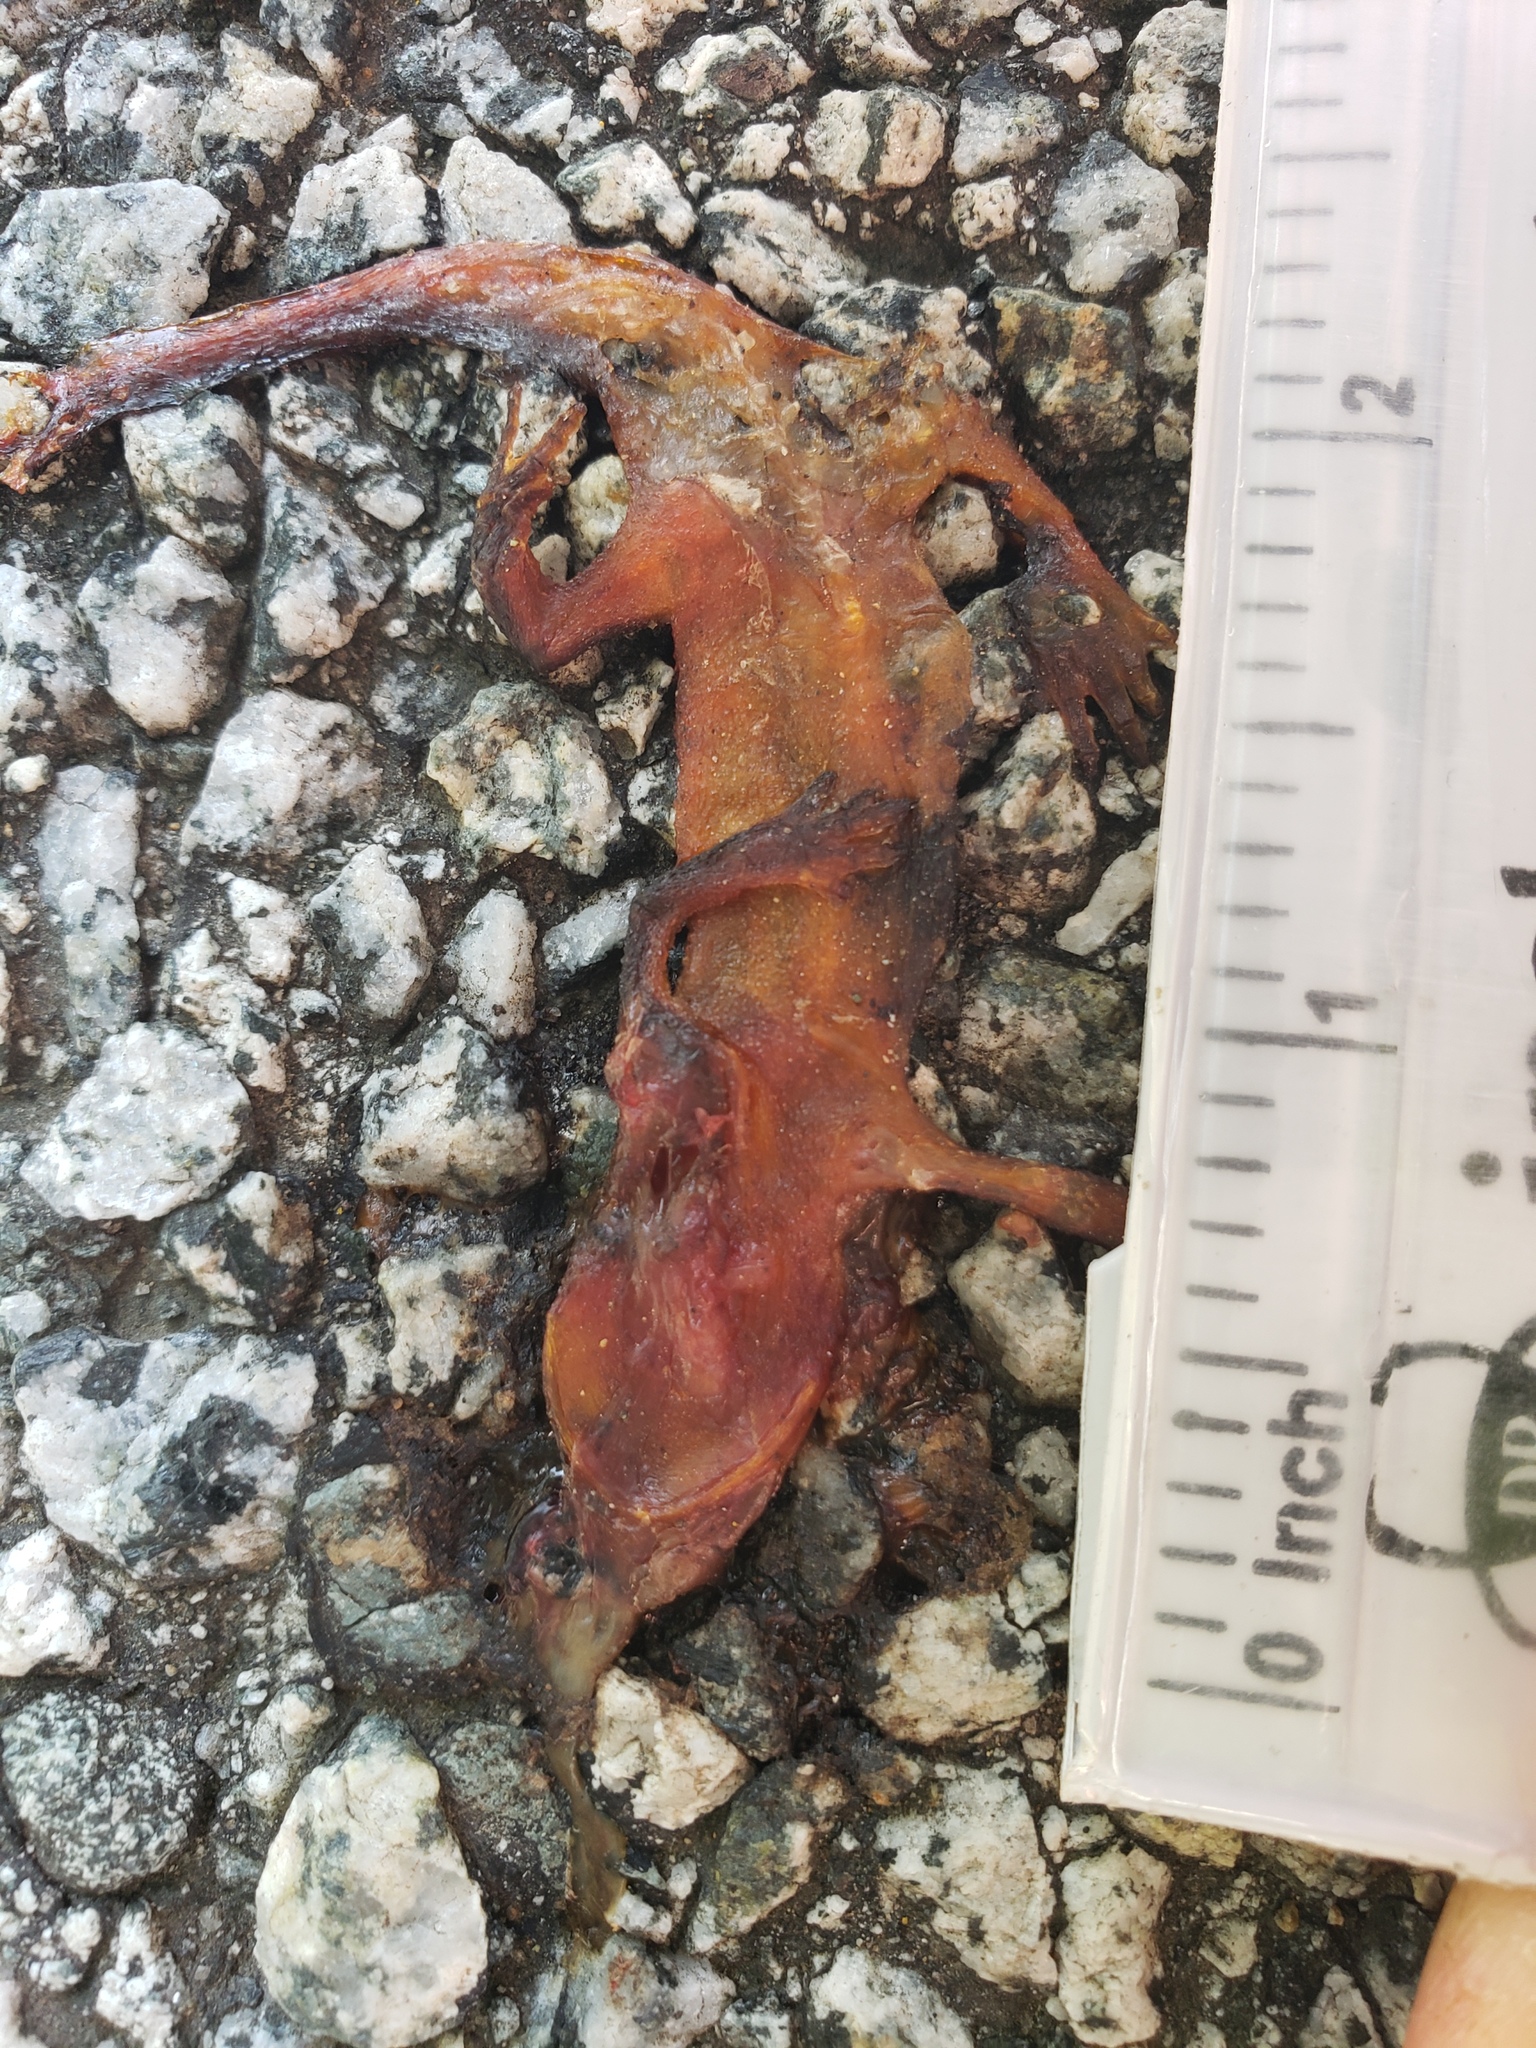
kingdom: Animalia
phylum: Chordata
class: Amphibia
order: Caudata
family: Salamandridae
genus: Taricha
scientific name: Taricha
